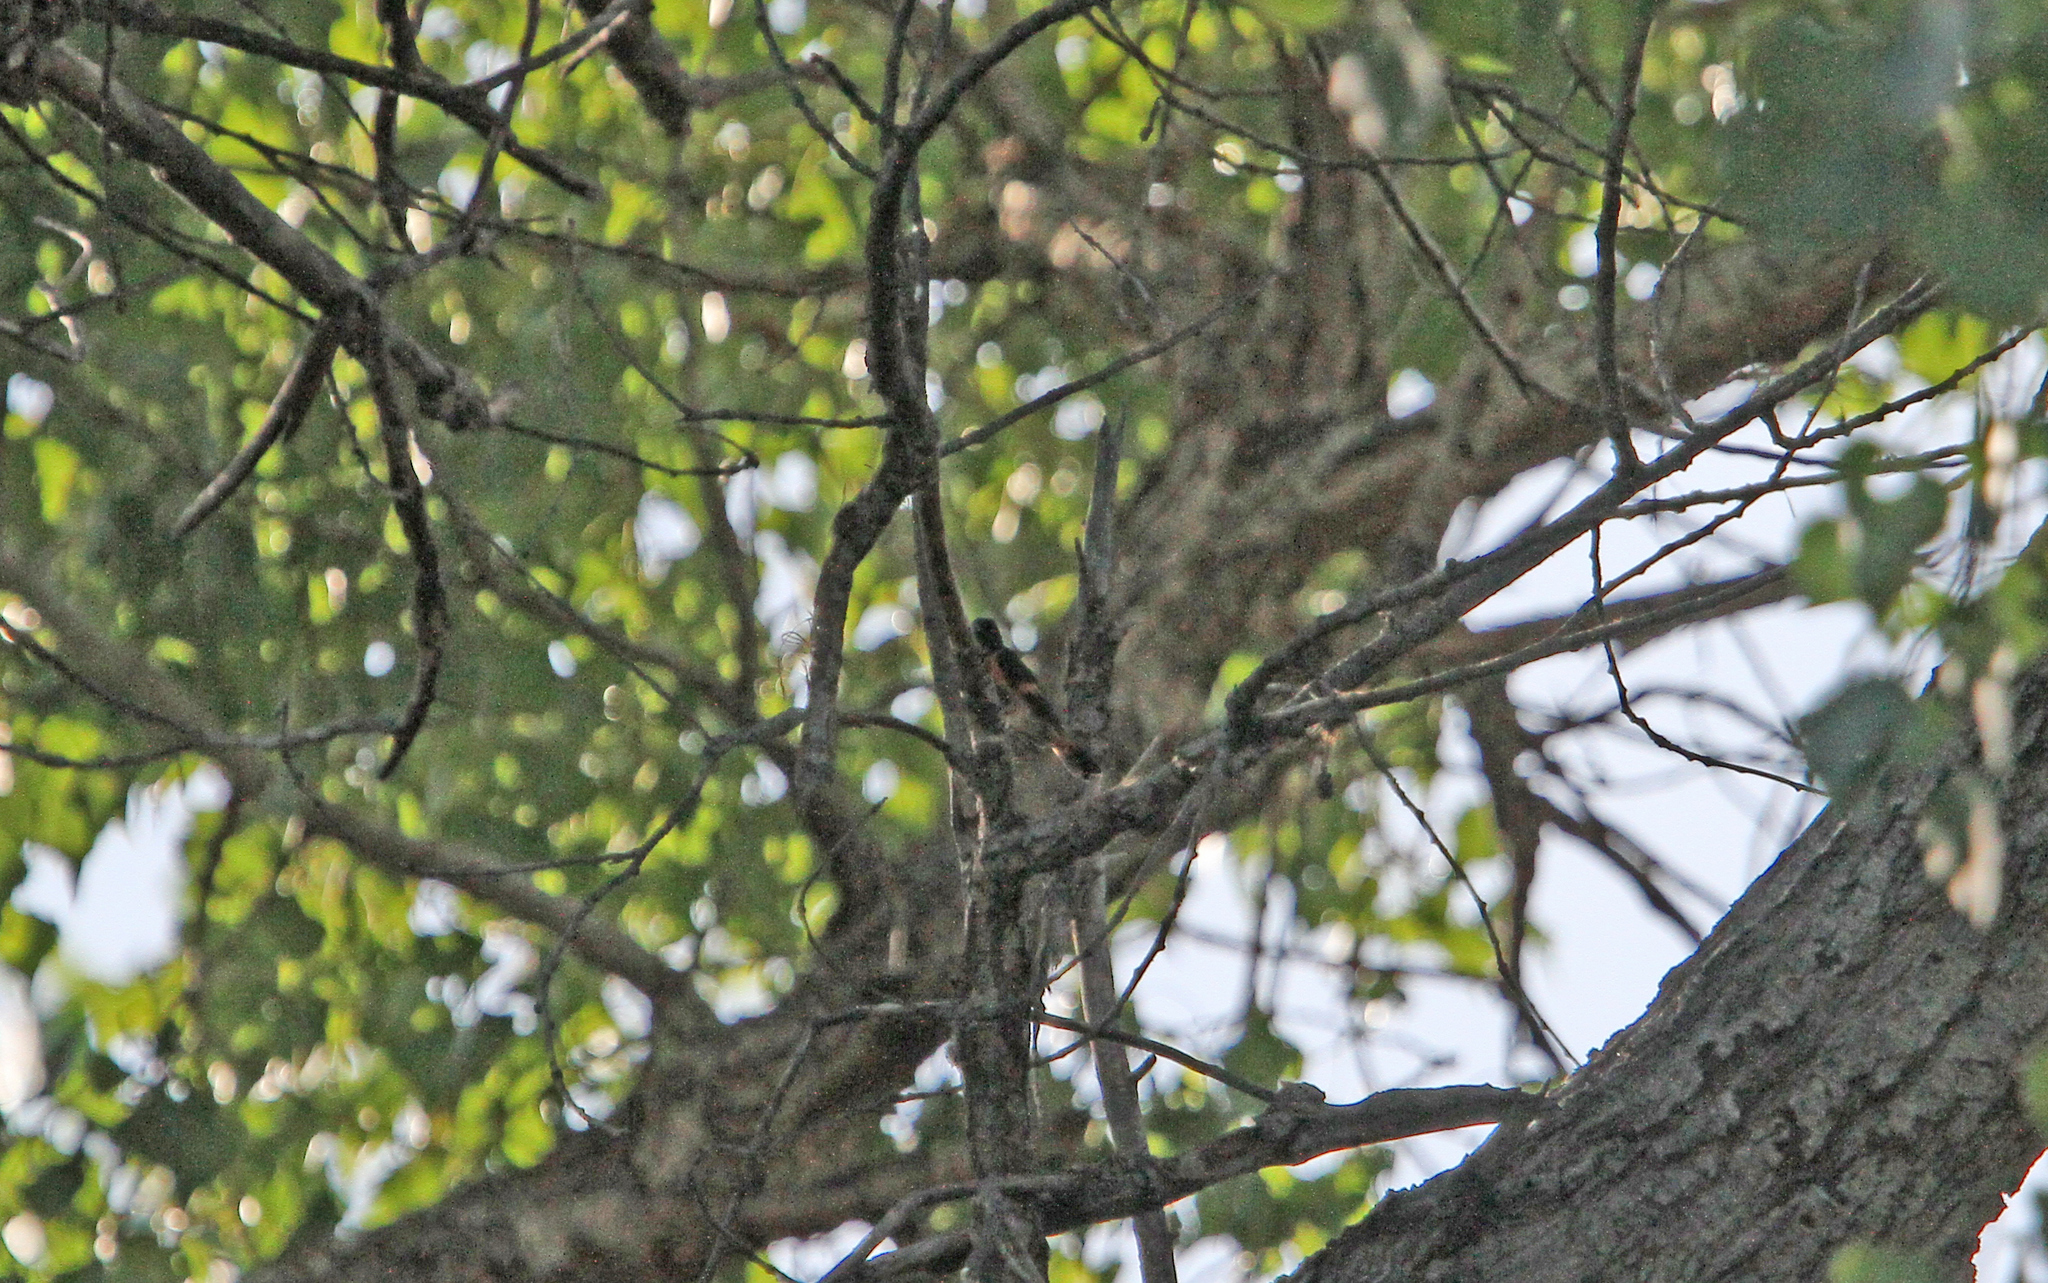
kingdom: Animalia
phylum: Chordata
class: Aves
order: Passeriformes
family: Parulidae
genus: Setophaga
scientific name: Setophaga ruticilla
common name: American redstart
